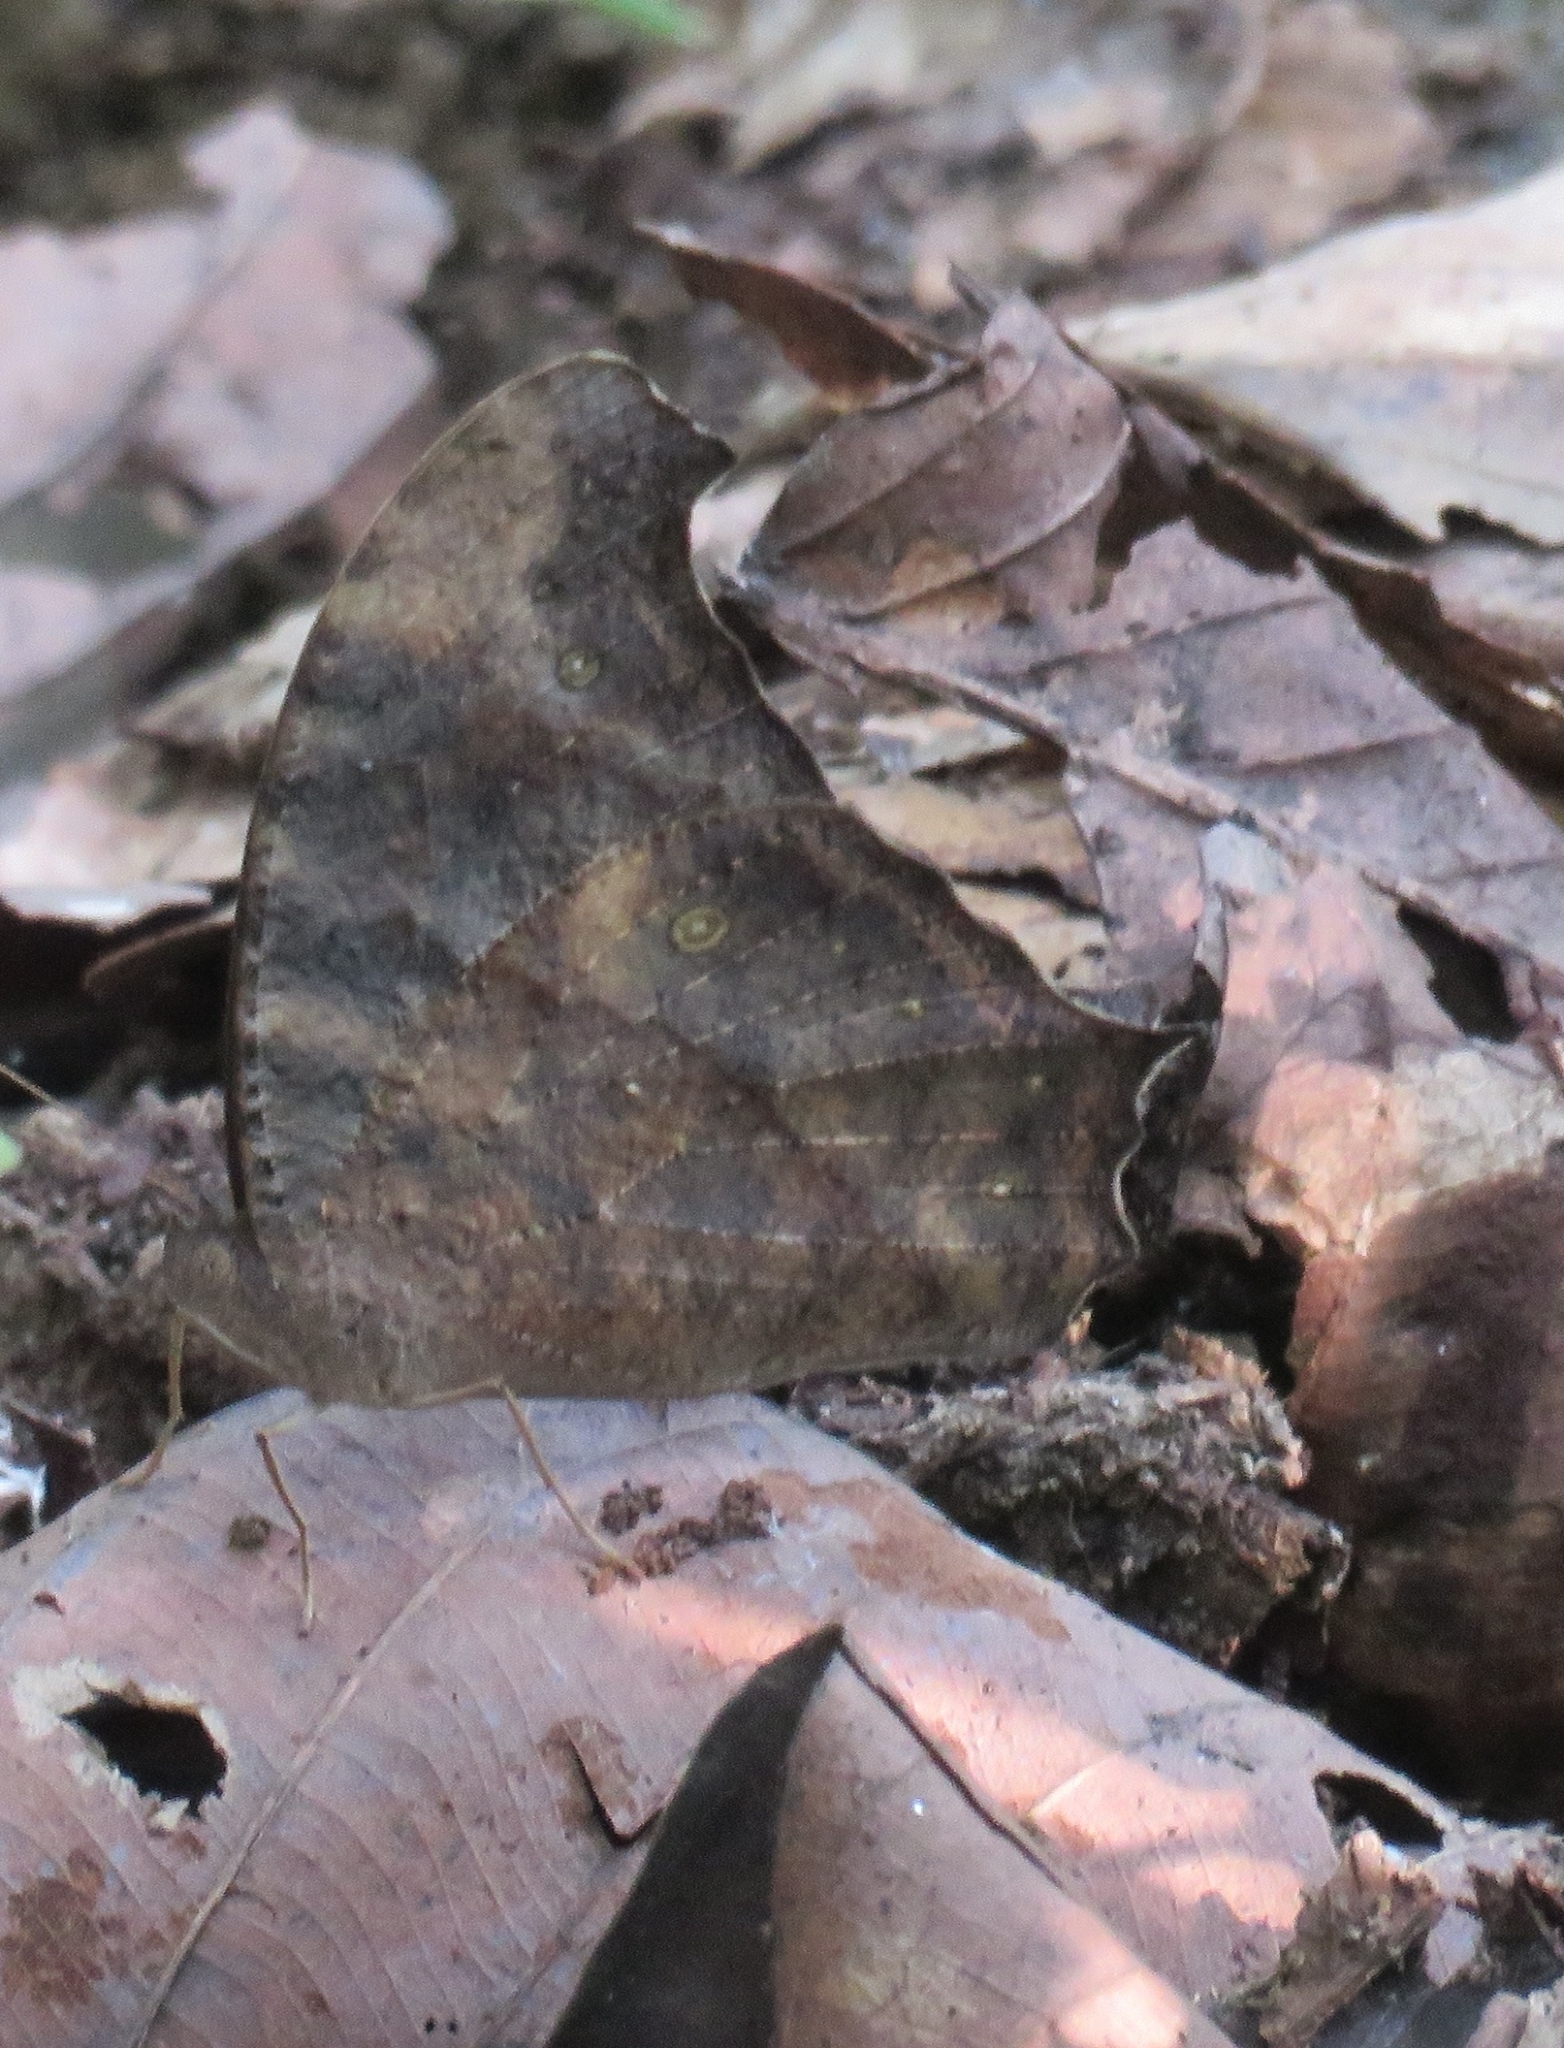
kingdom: Animalia
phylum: Arthropoda
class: Insecta
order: Lepidoptera
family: Nymphalidae
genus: Melanitis
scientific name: Melanitis leda
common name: Twilight brown
